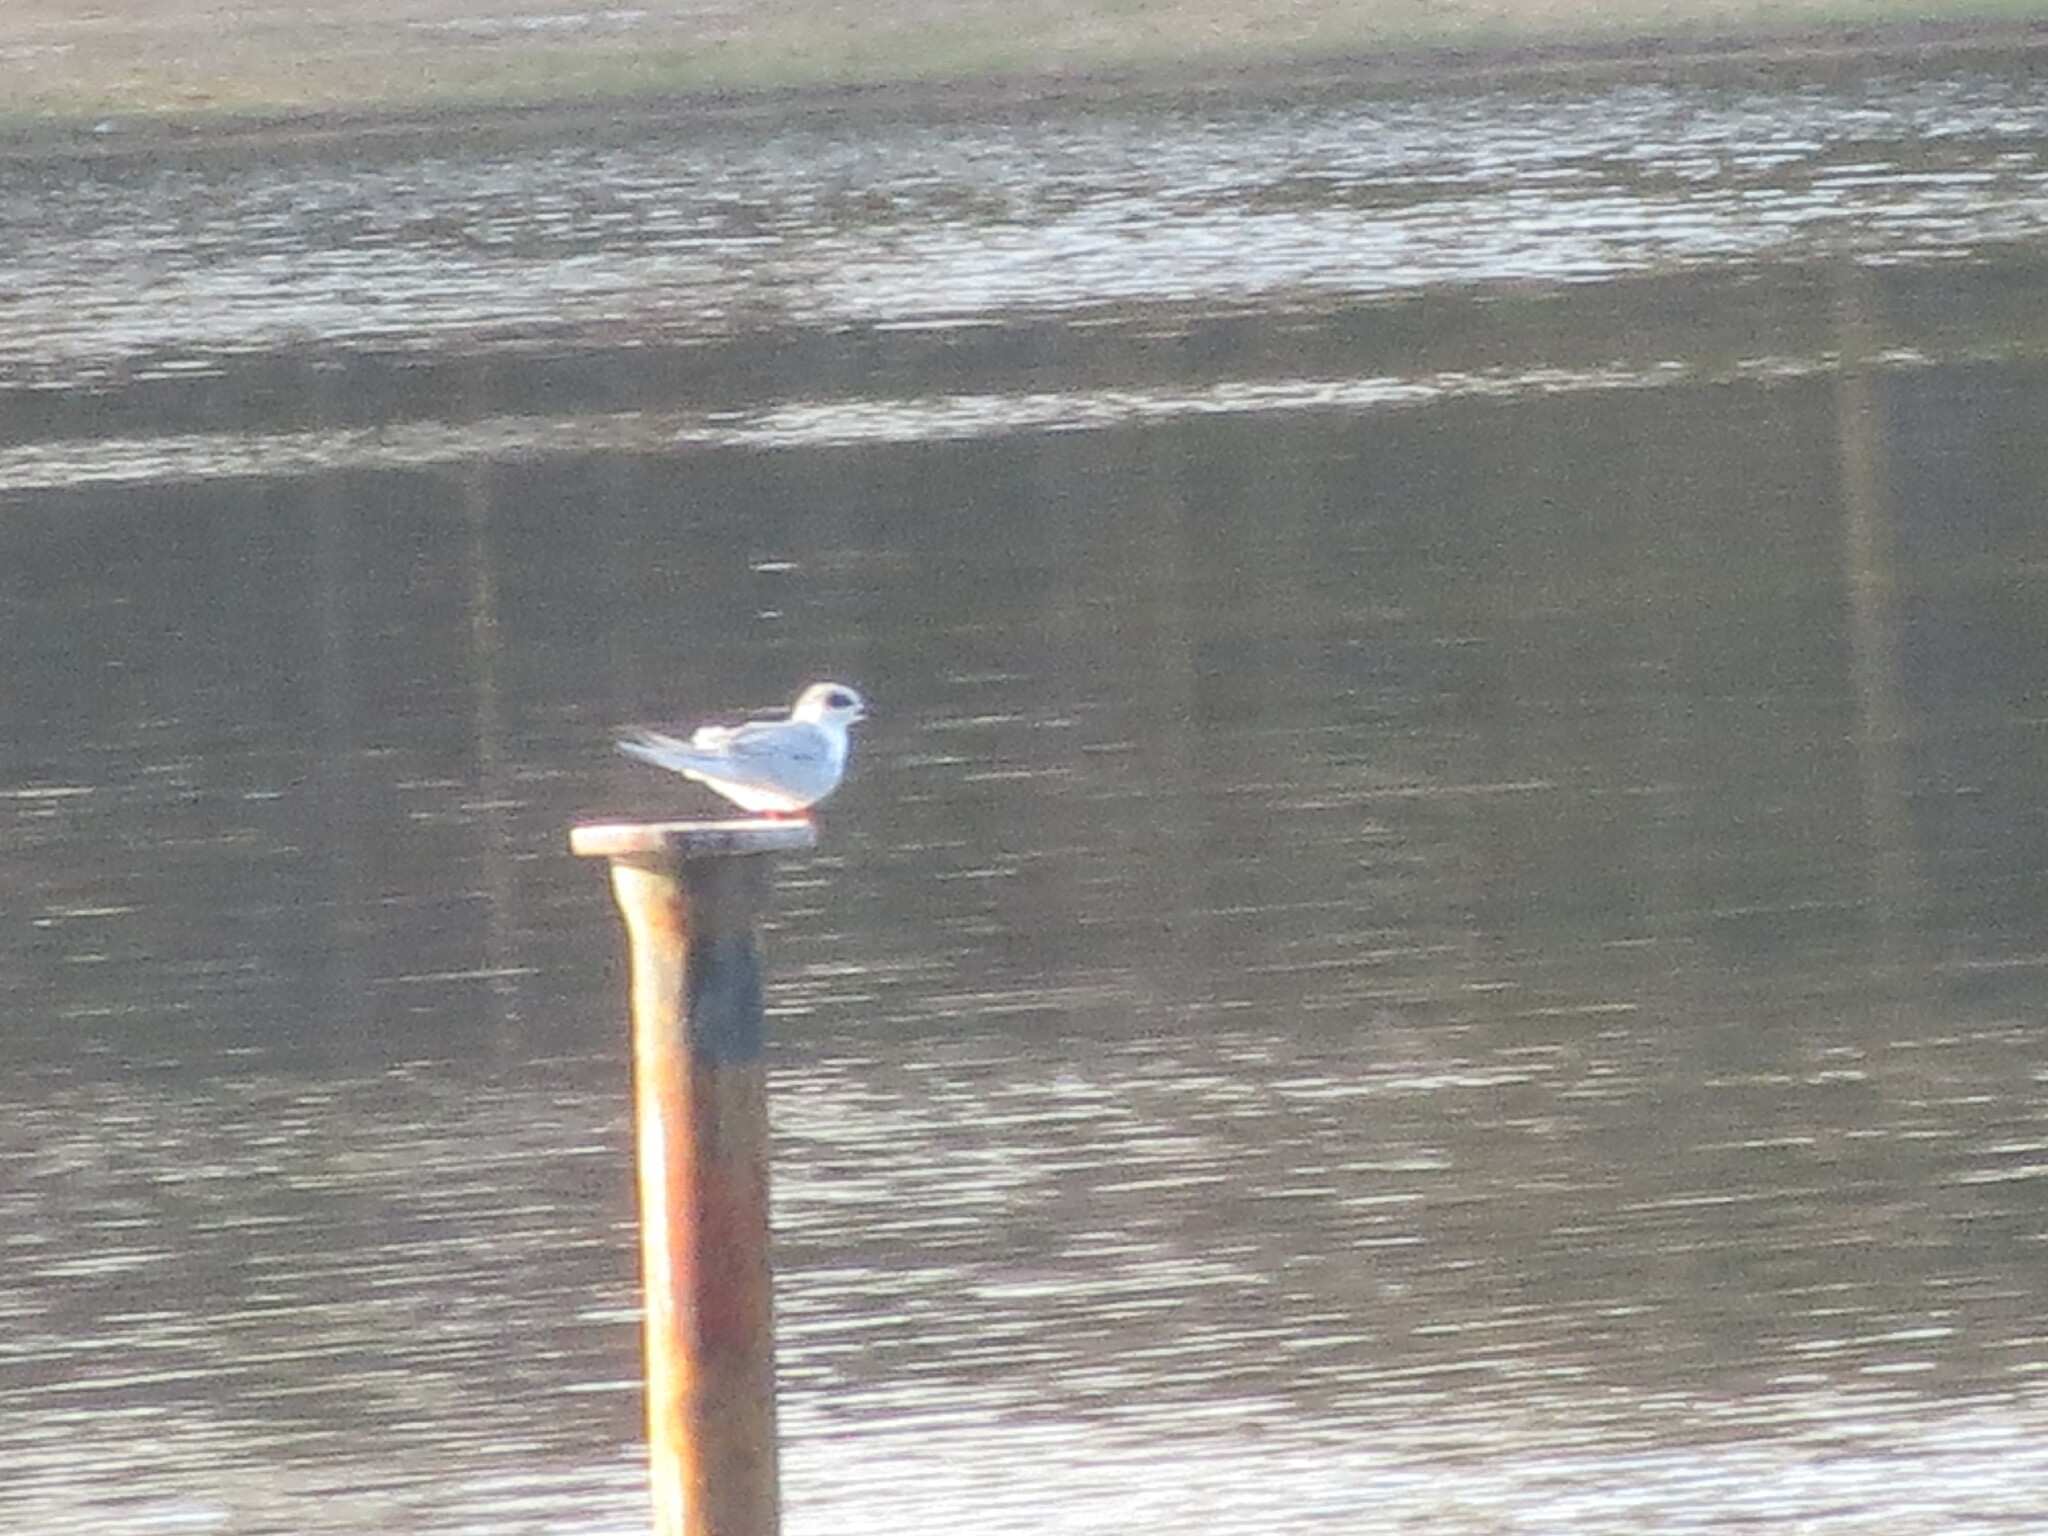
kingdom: Animalia
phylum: Chordata
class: Aves
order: Charadriiformes
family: Laridae
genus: Sterna
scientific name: Sterna forsteri
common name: Forster's tern
